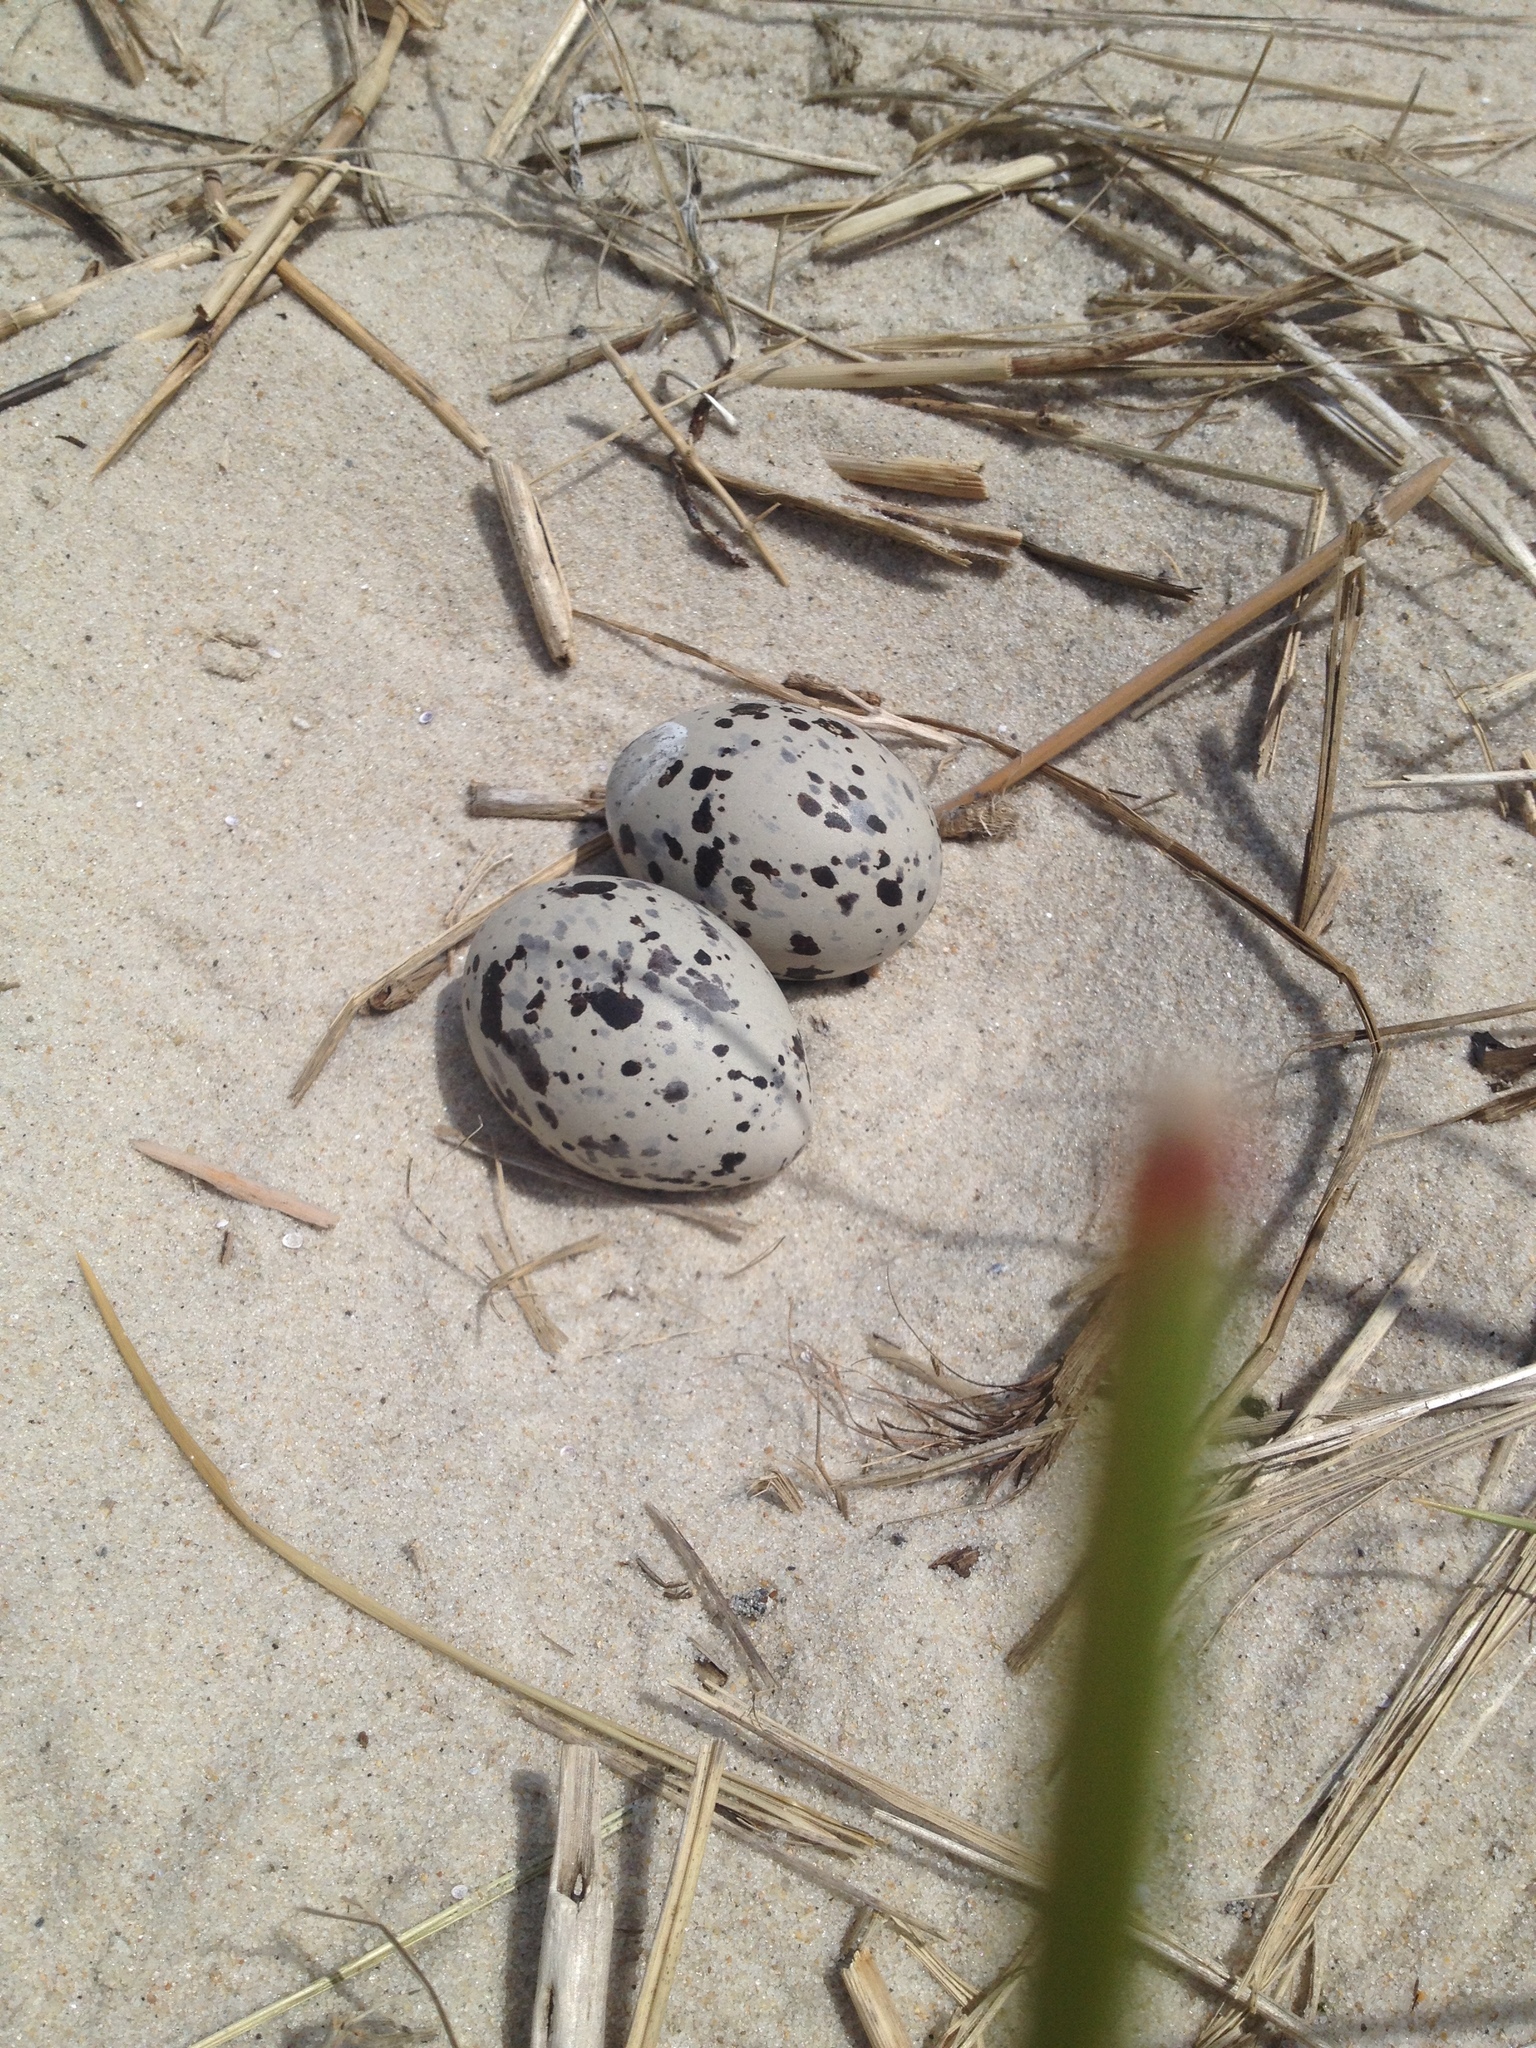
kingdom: Animalia
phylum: Chordata
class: Aves
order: Charadriiformes
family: Haematopodidae
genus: Haematopus
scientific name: Haematopus palliatus
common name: American oystercatcher
